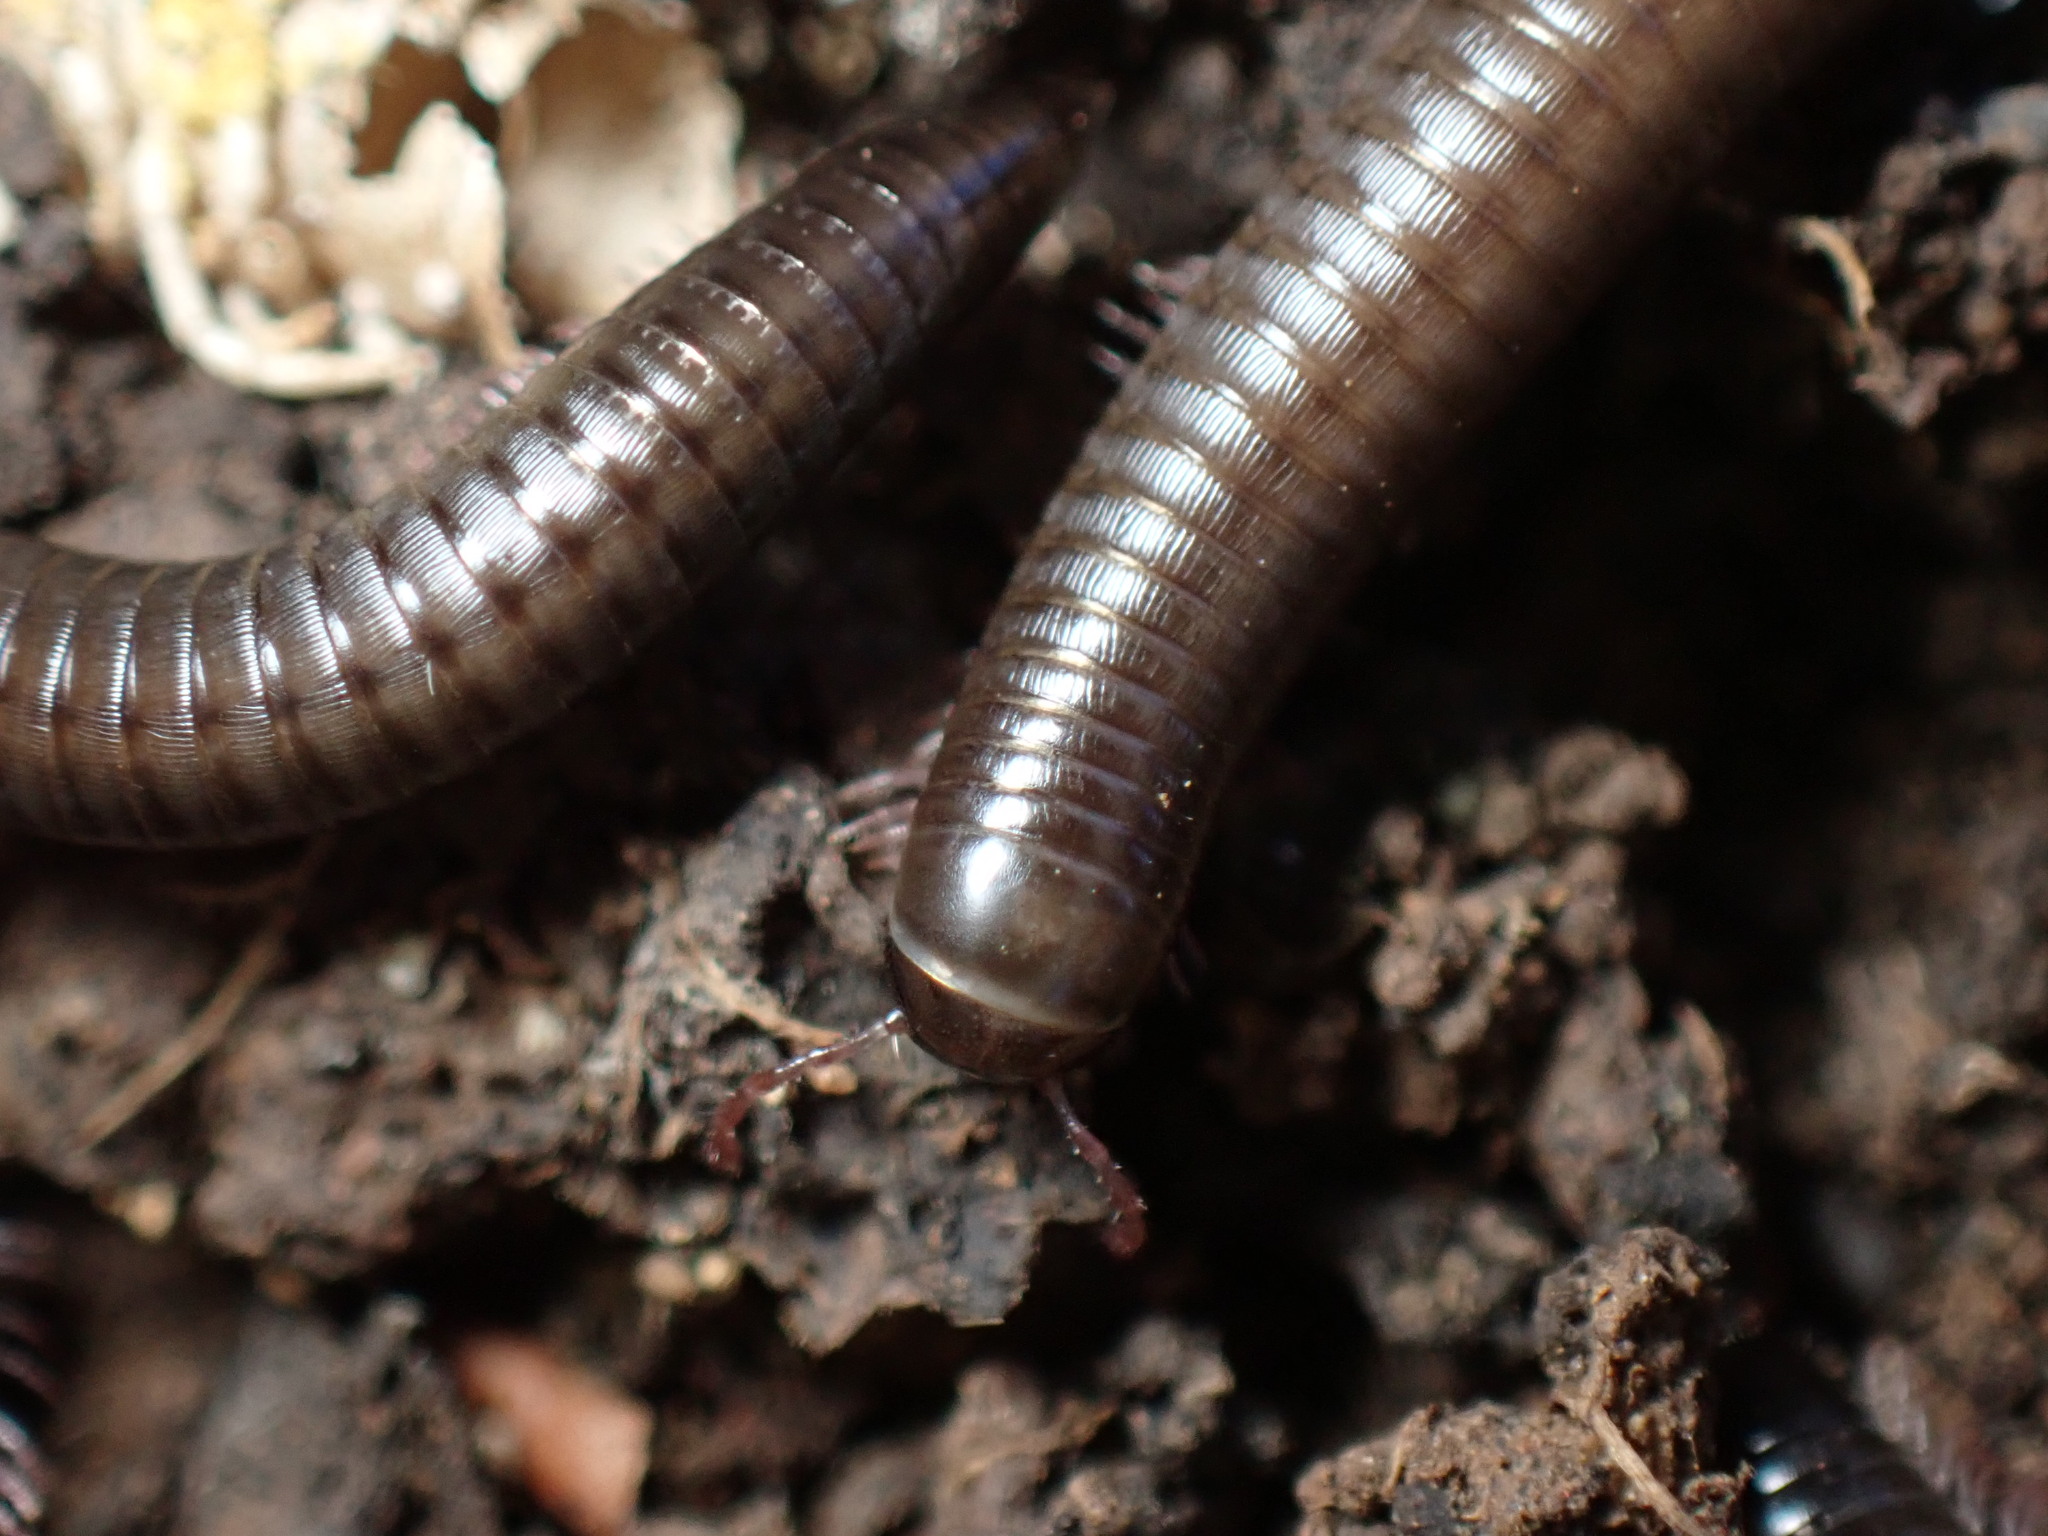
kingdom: Animalia
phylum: Arthropoda
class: Diplopoda
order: Julida
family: Julidae
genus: Ommatoiulus
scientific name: Ommatoiulus moreleti
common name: Portuguese millipede
